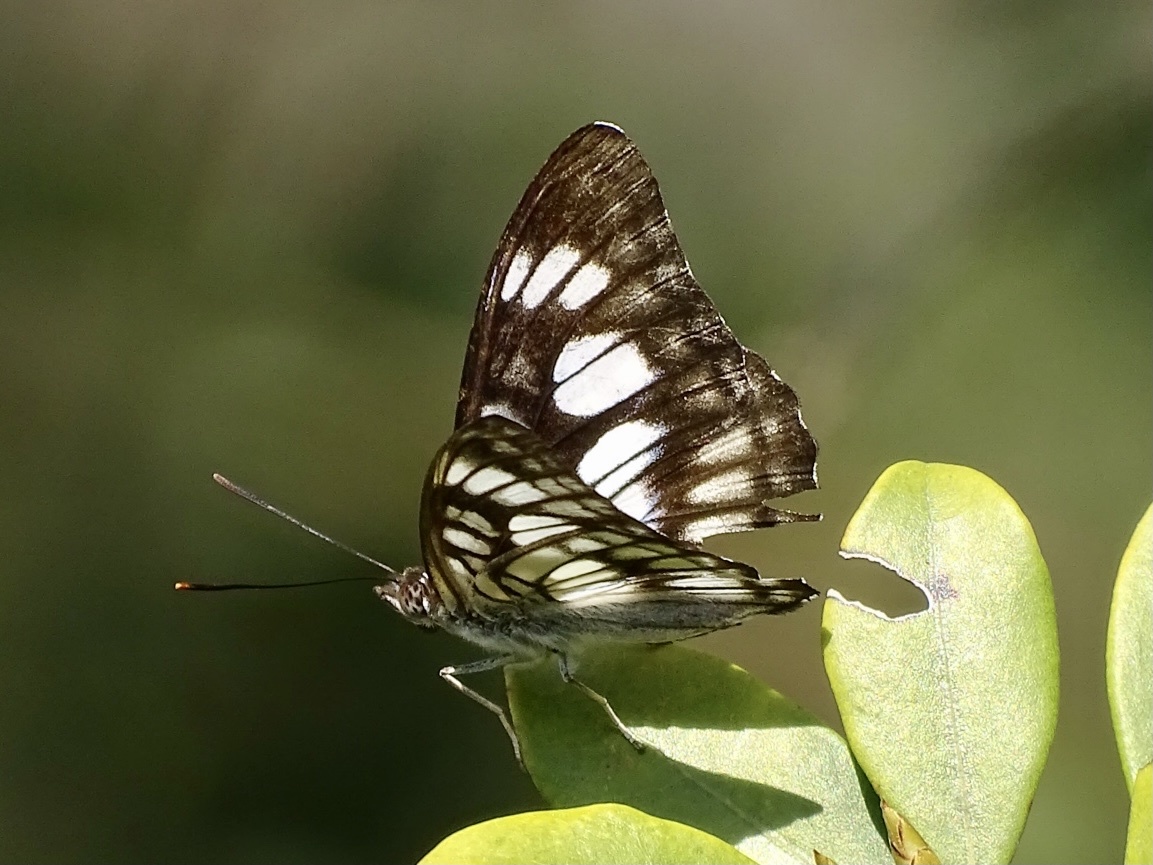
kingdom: Animalia
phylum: Arthropoda
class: Insecta
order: Lepidoptera
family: Nymphalidae
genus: Parathyma
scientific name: Parathyma ranga
